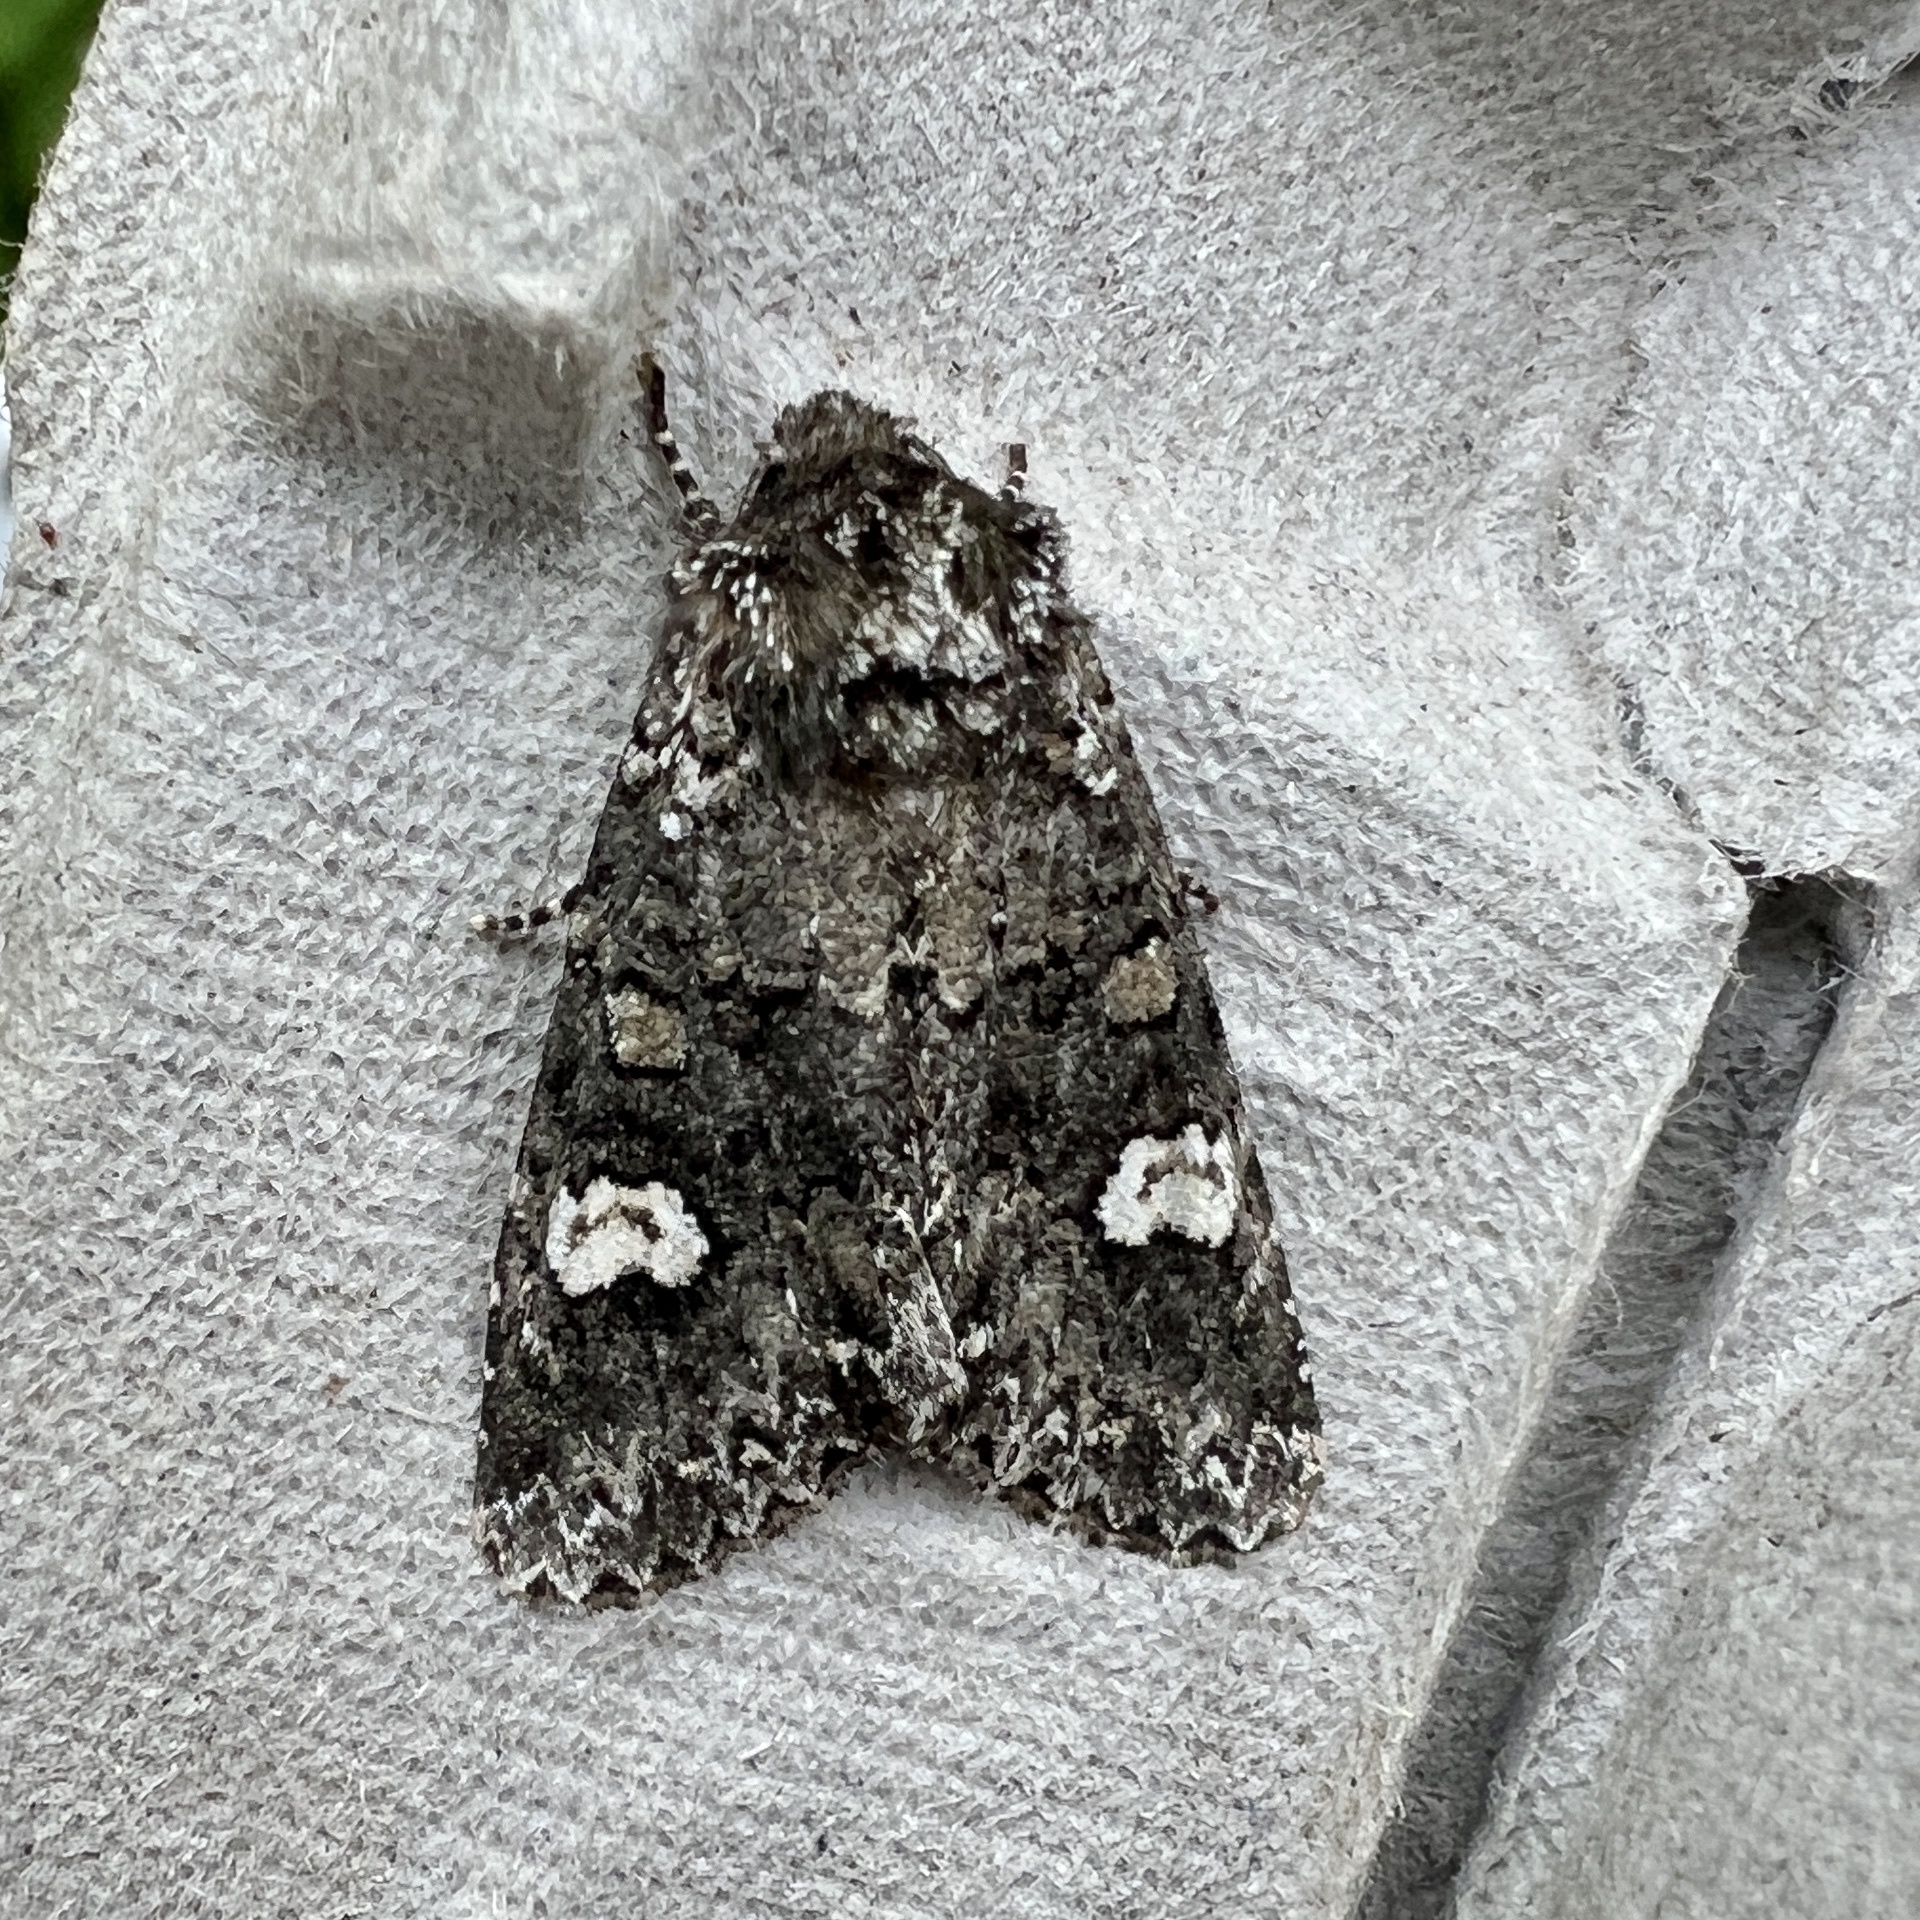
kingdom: Animalia
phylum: Arthropoda
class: Insecta
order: Lepidoptera
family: Noctuidae
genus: Melanchra
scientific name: Melanchra adjuncta
